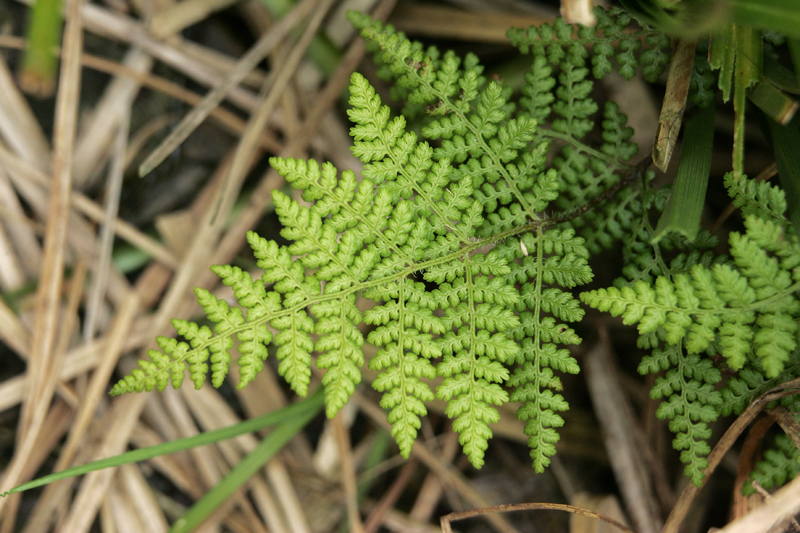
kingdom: Plantae
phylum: Tracheophyta
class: Polypodiopsida
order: Polypodiales
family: Dennstaedtiaceae
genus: Hypolepis
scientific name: Hypolepis millefolium
